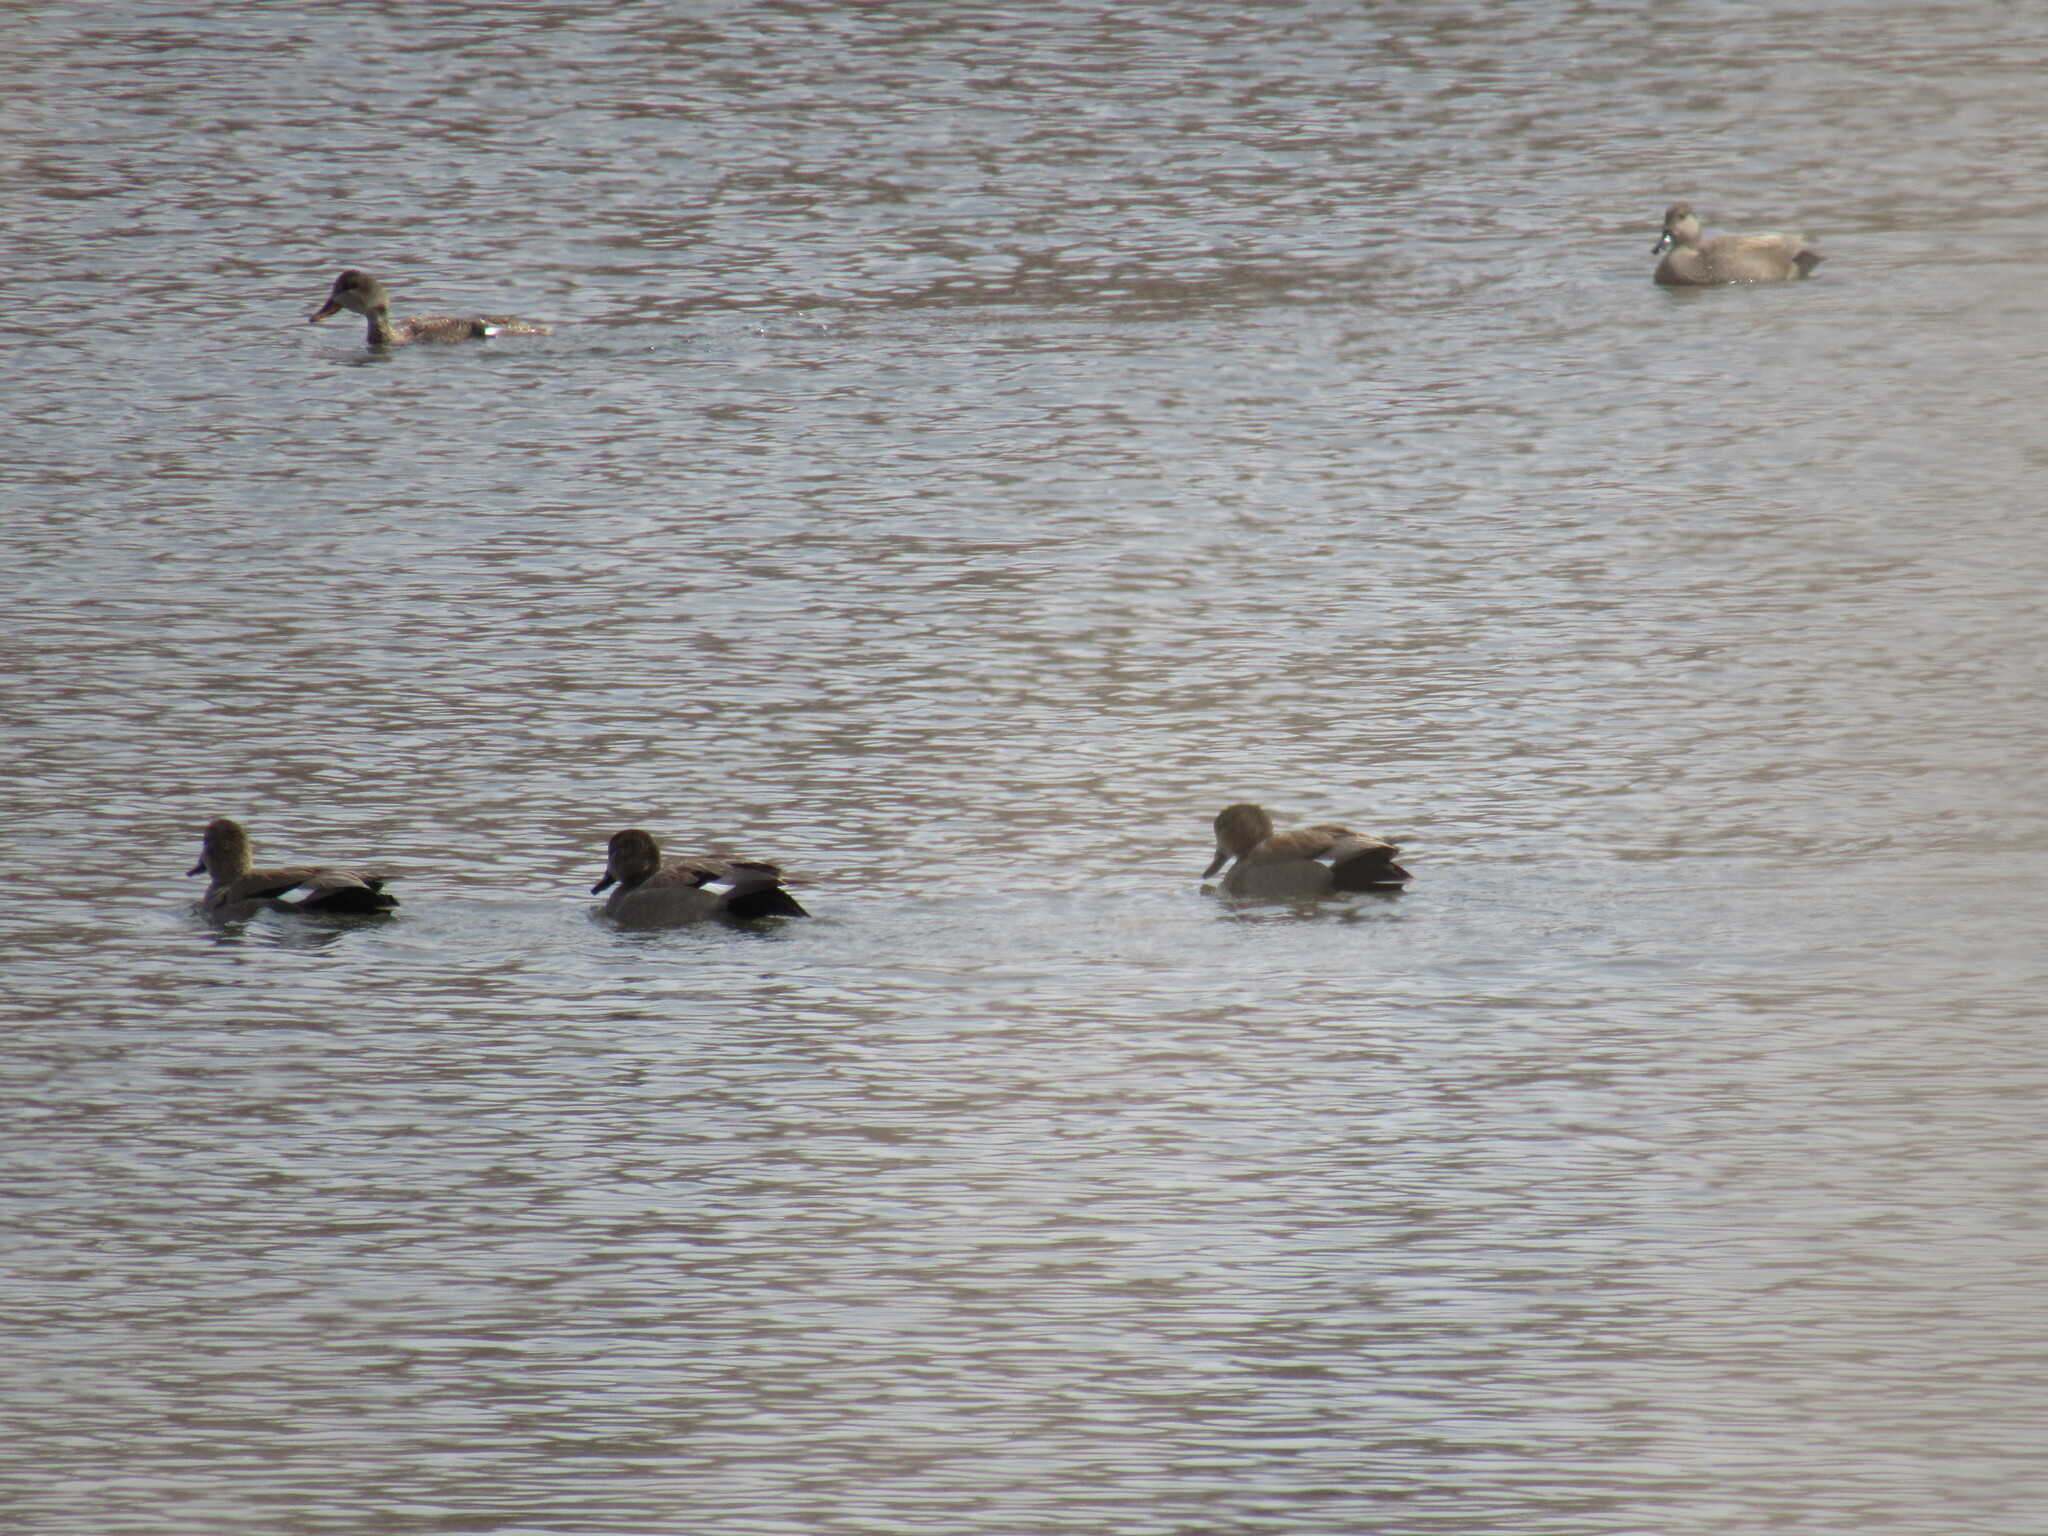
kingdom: Animalia
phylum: Chordata
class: Aves
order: Anseriformes
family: Anatidae
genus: Mareca
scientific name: Mareca strepera
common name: Gadwall
